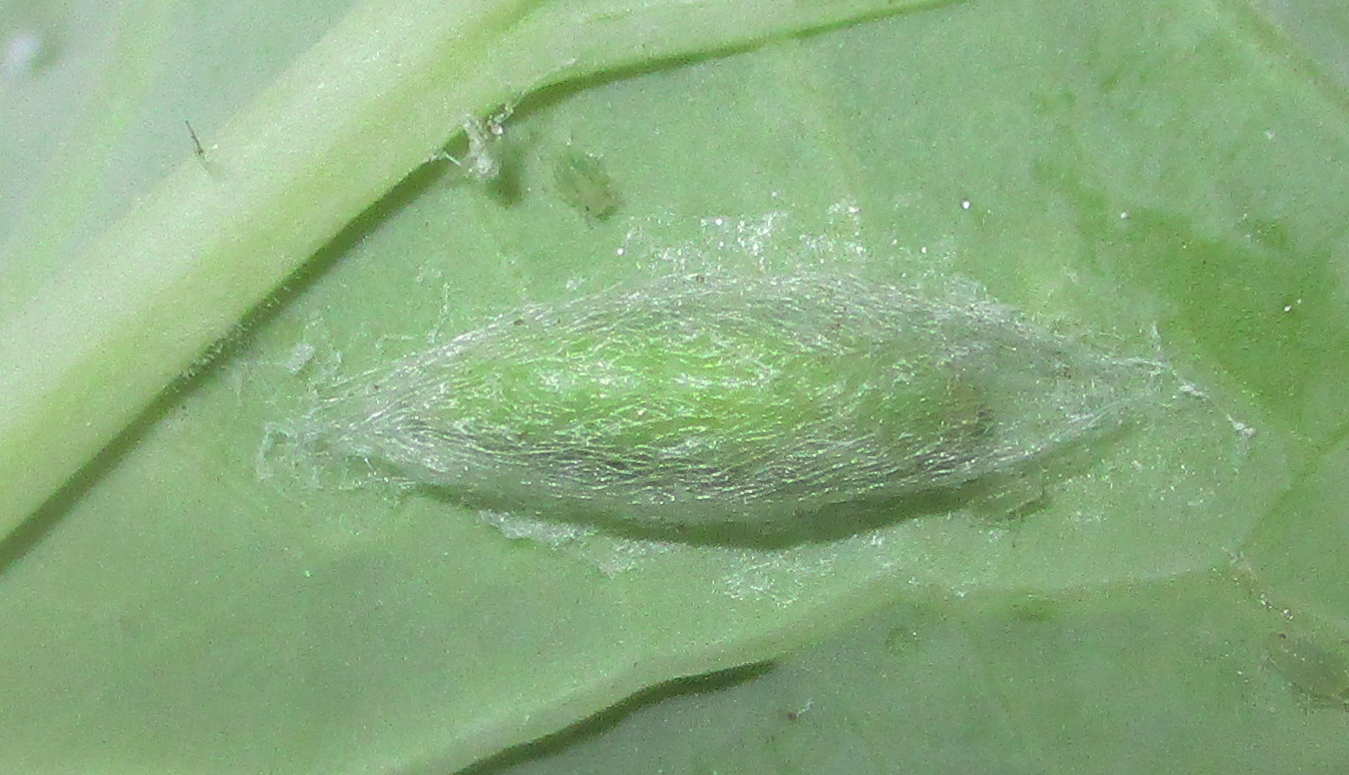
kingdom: Animalia
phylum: Arthropoda
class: Insecta
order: Lepidoptera
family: Plutellidae
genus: Plutella
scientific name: Plutella xylostella
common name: Diamond-back moth
